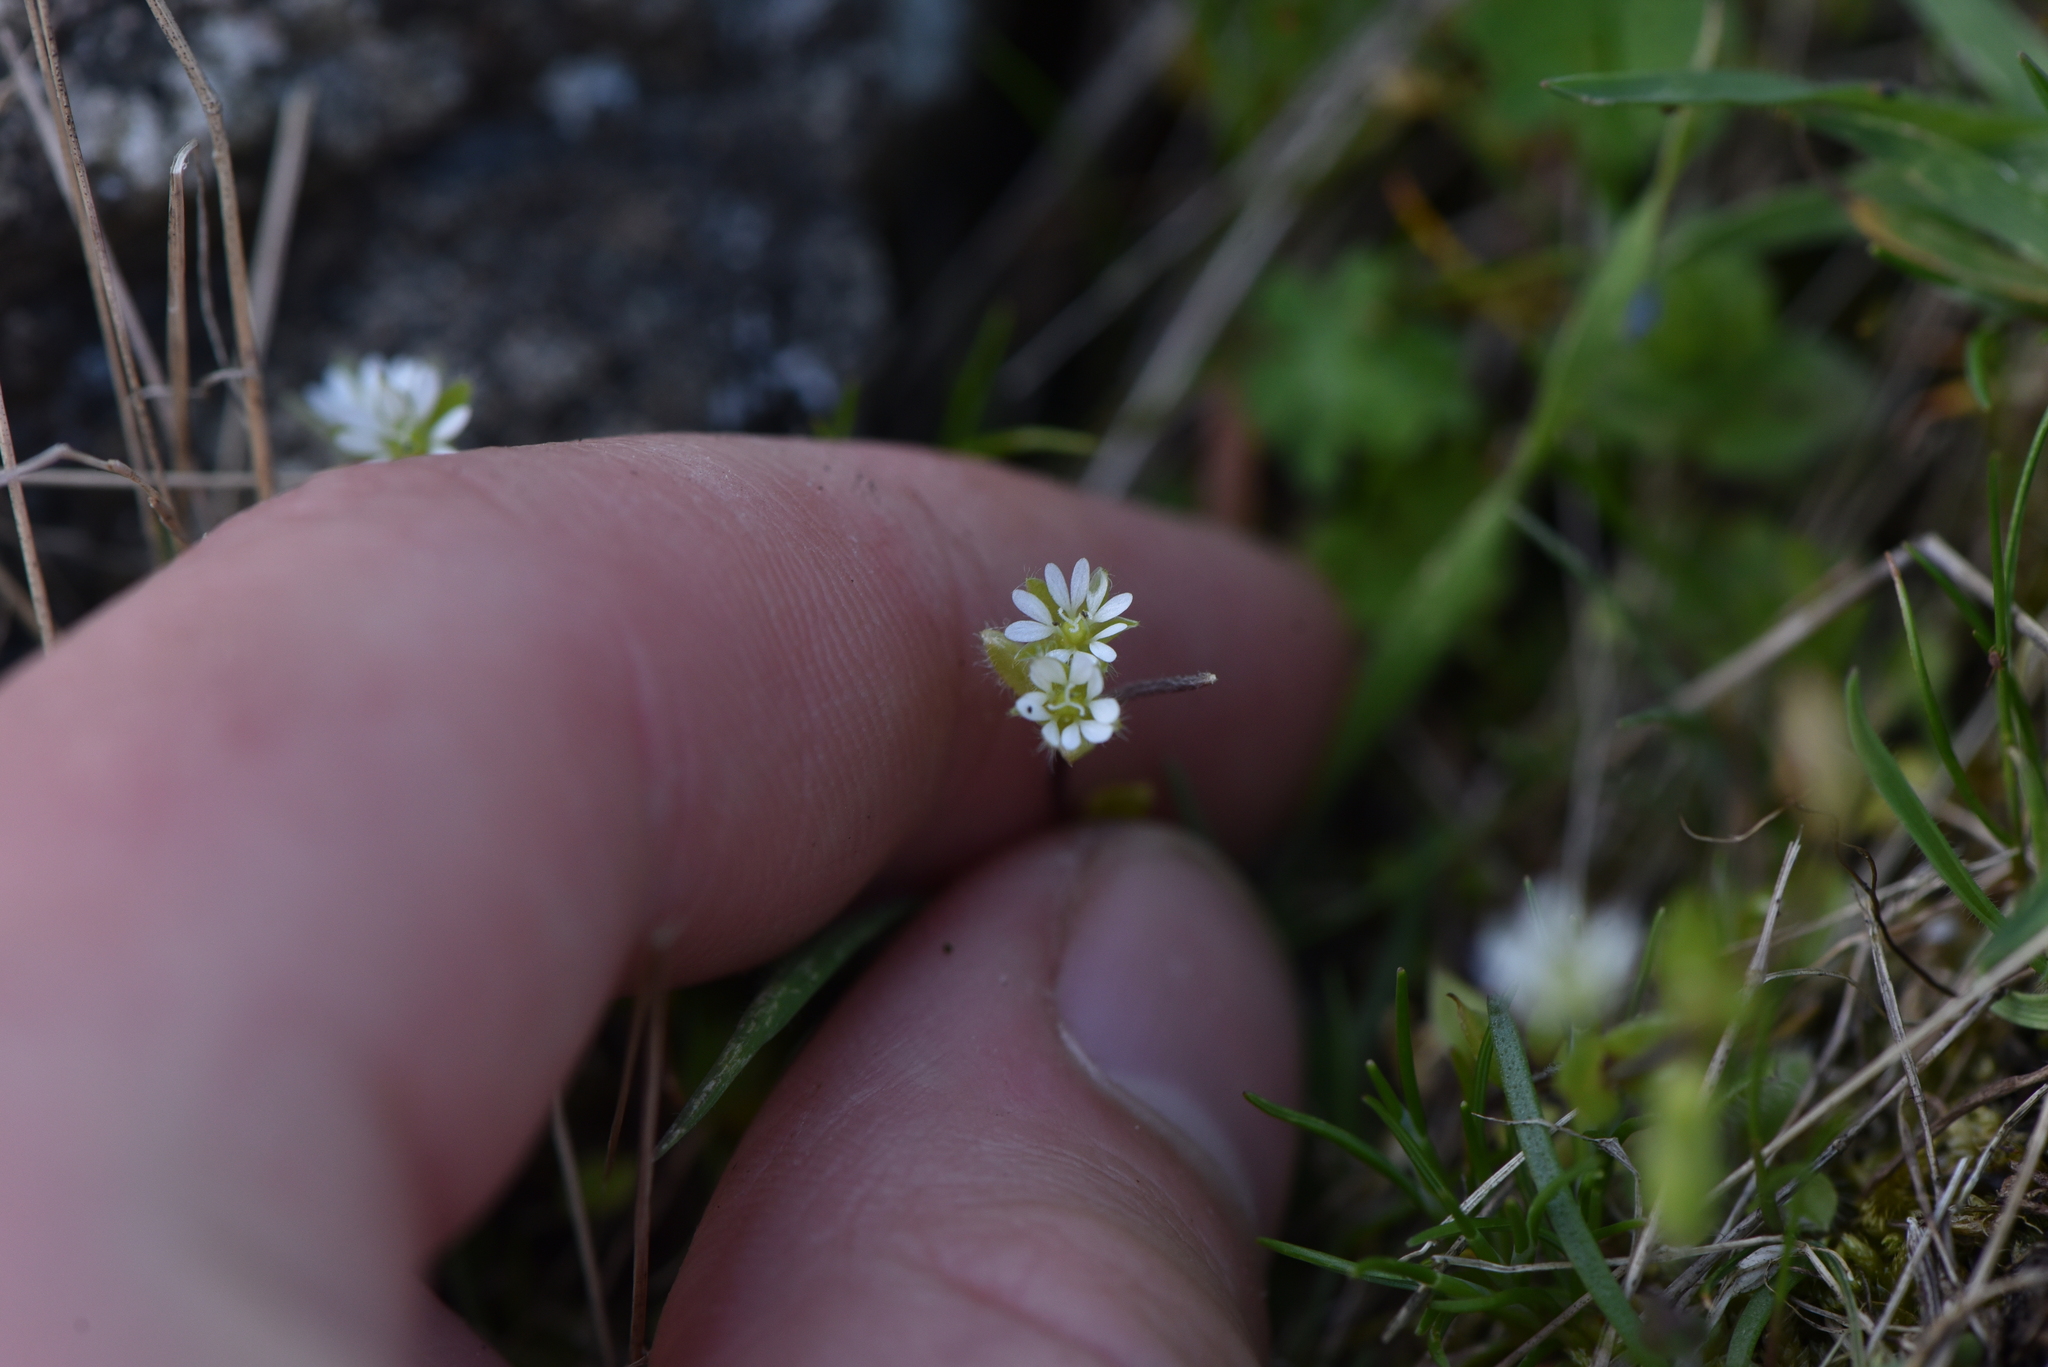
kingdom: Plantae
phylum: Tracheophyta
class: Magnoliopsida
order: Caryophyllales
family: Caryophyllaceae
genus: Stellaria
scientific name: Stellaria media
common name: Common chickweed
